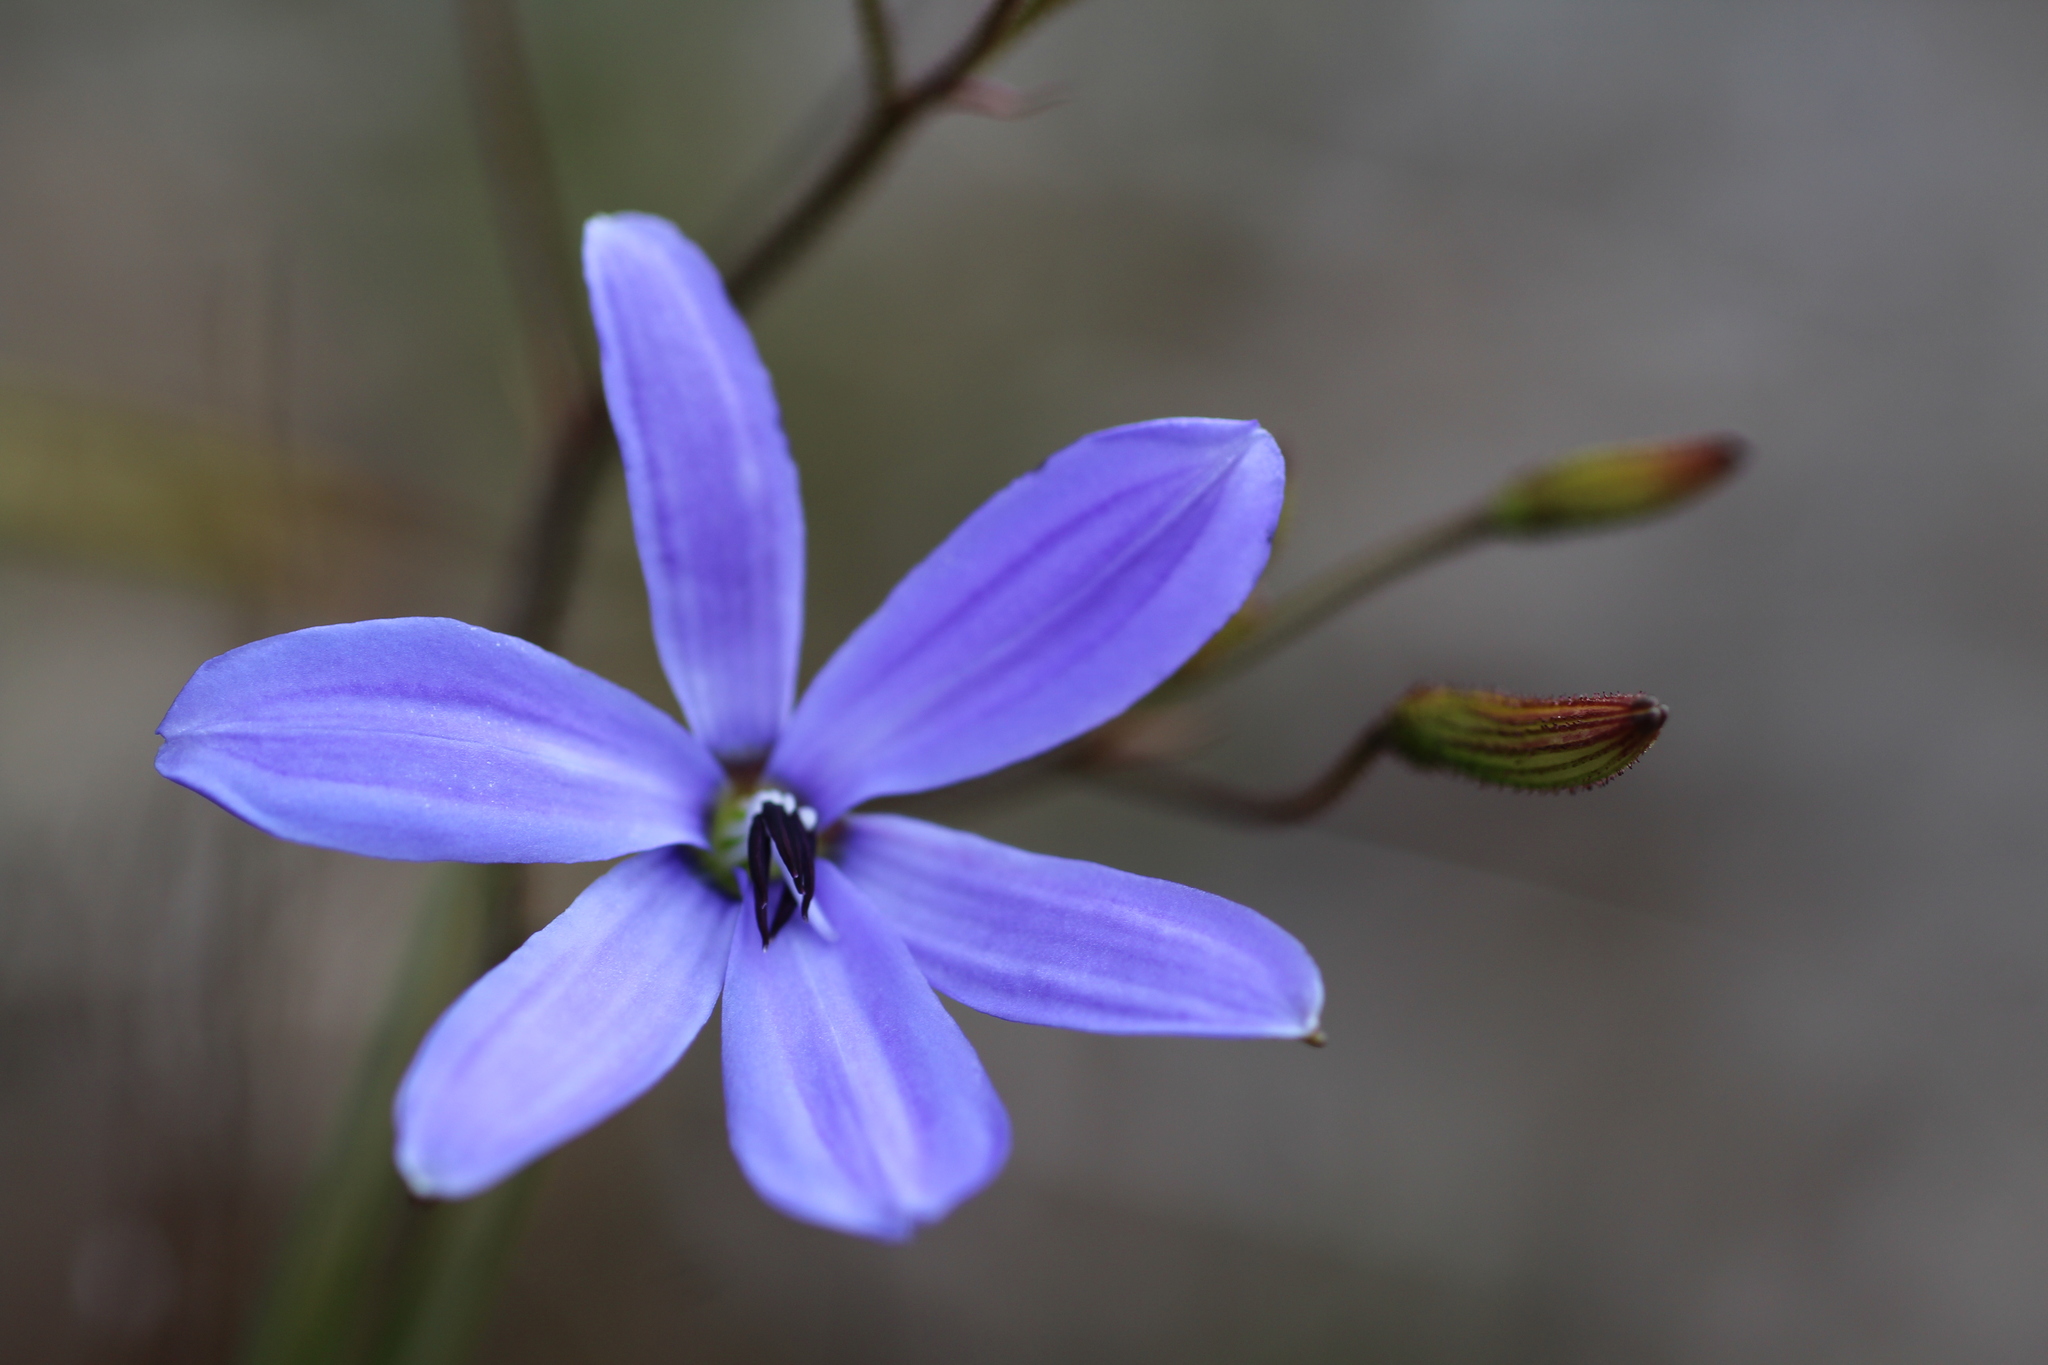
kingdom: Plantae
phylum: Tracheophyta
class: Liliopsida
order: Asparagales
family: Asphodelaceae
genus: Agrostocrinum
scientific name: Agrostocrinum hirsutum
